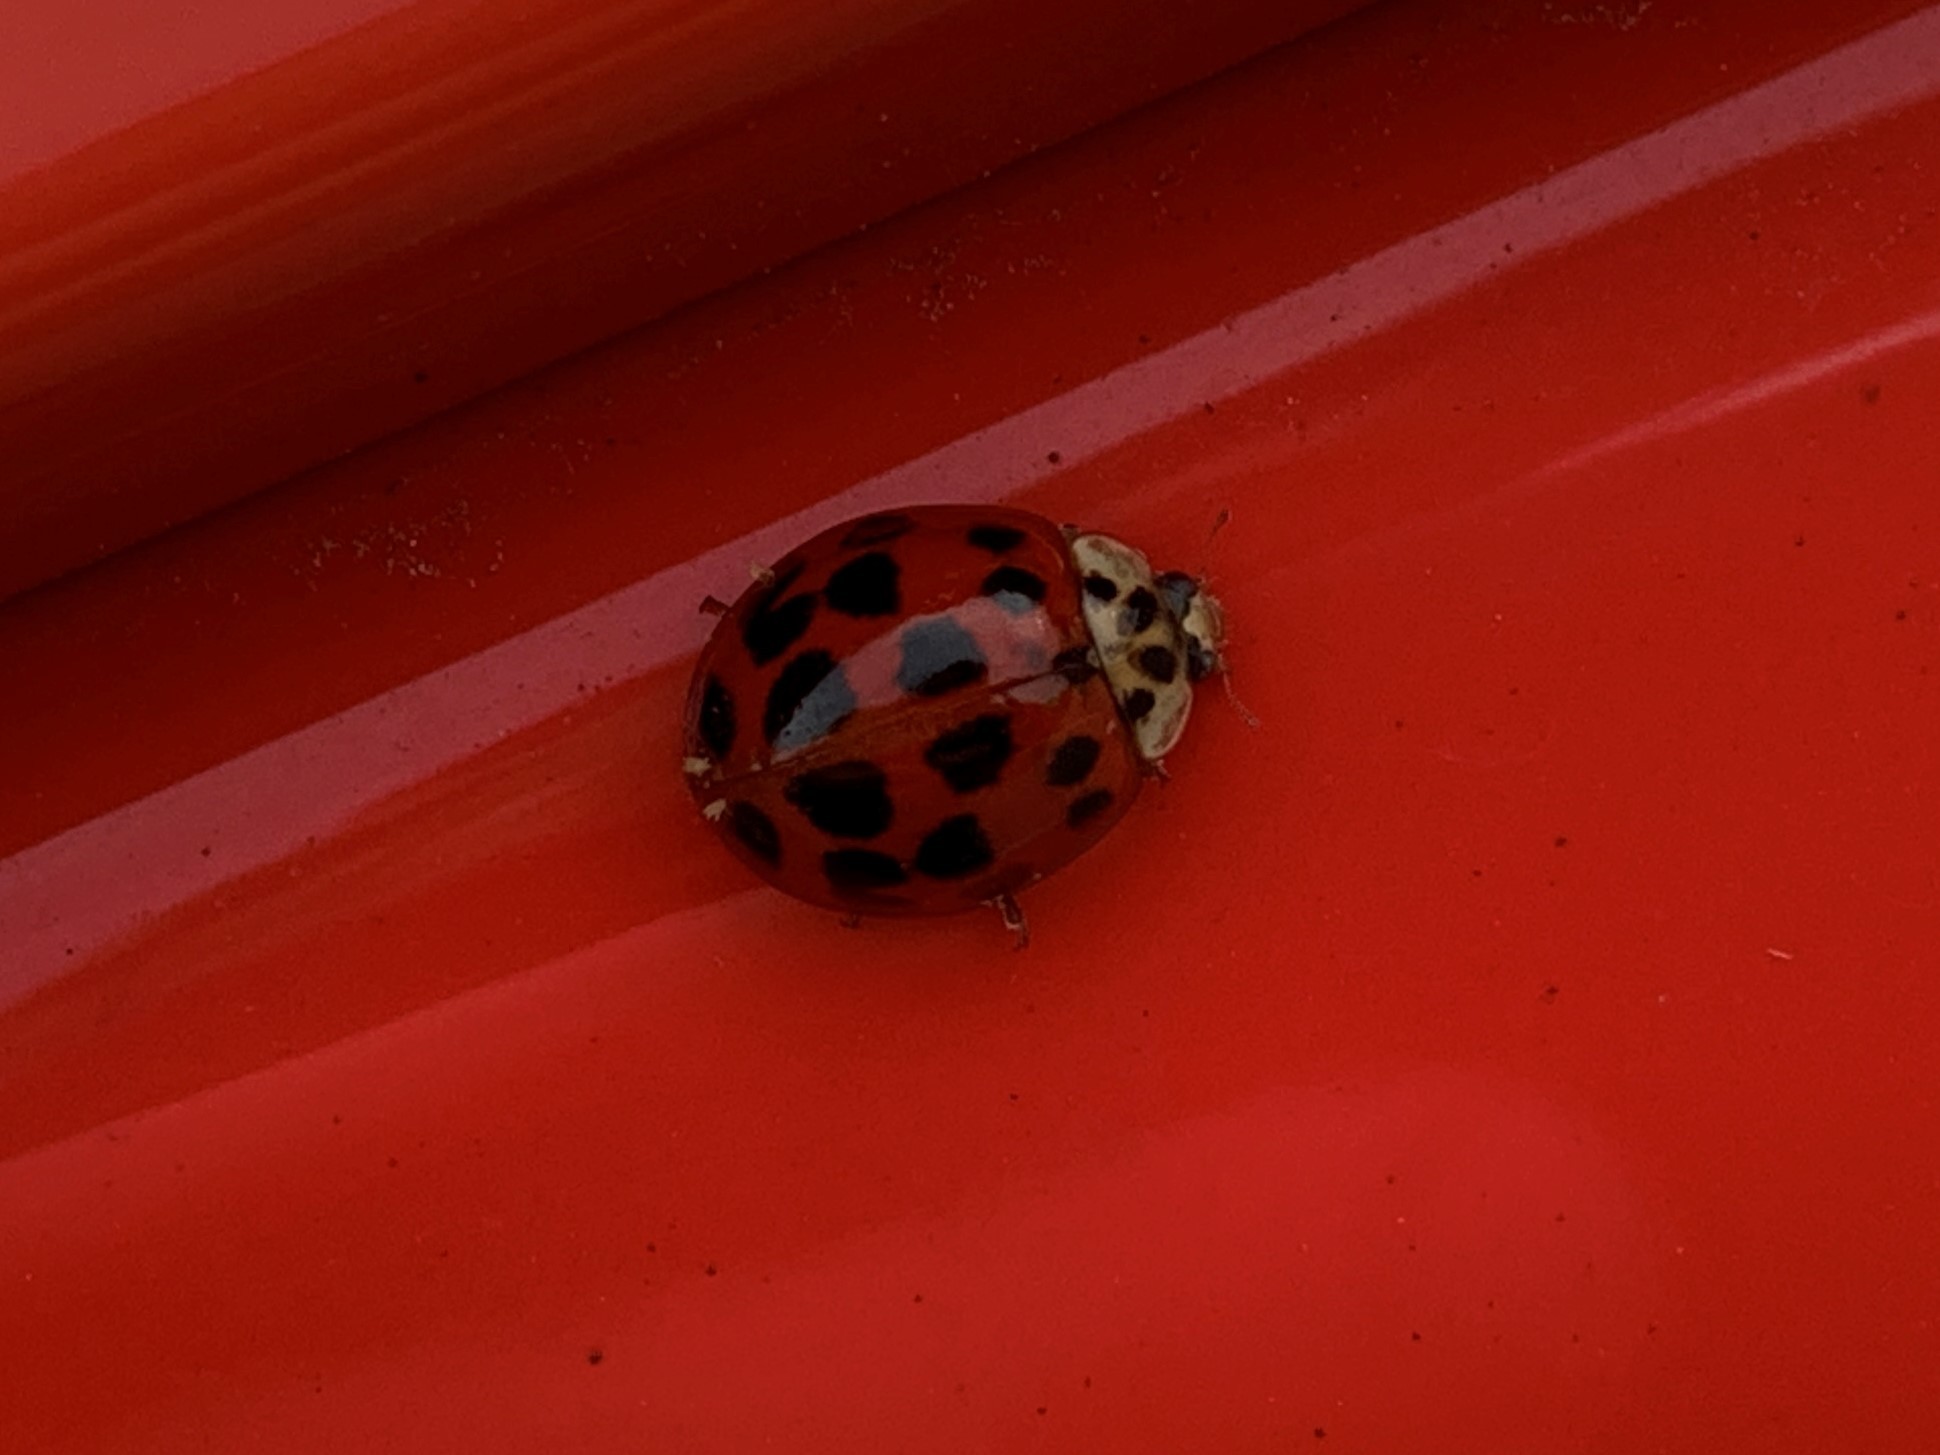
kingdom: Animalia
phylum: Arthropoda
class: Insecta
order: Coleoptera
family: Coccinellidae
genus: Harmonia
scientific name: Harmonia axyridis
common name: Harlequin ladybird
